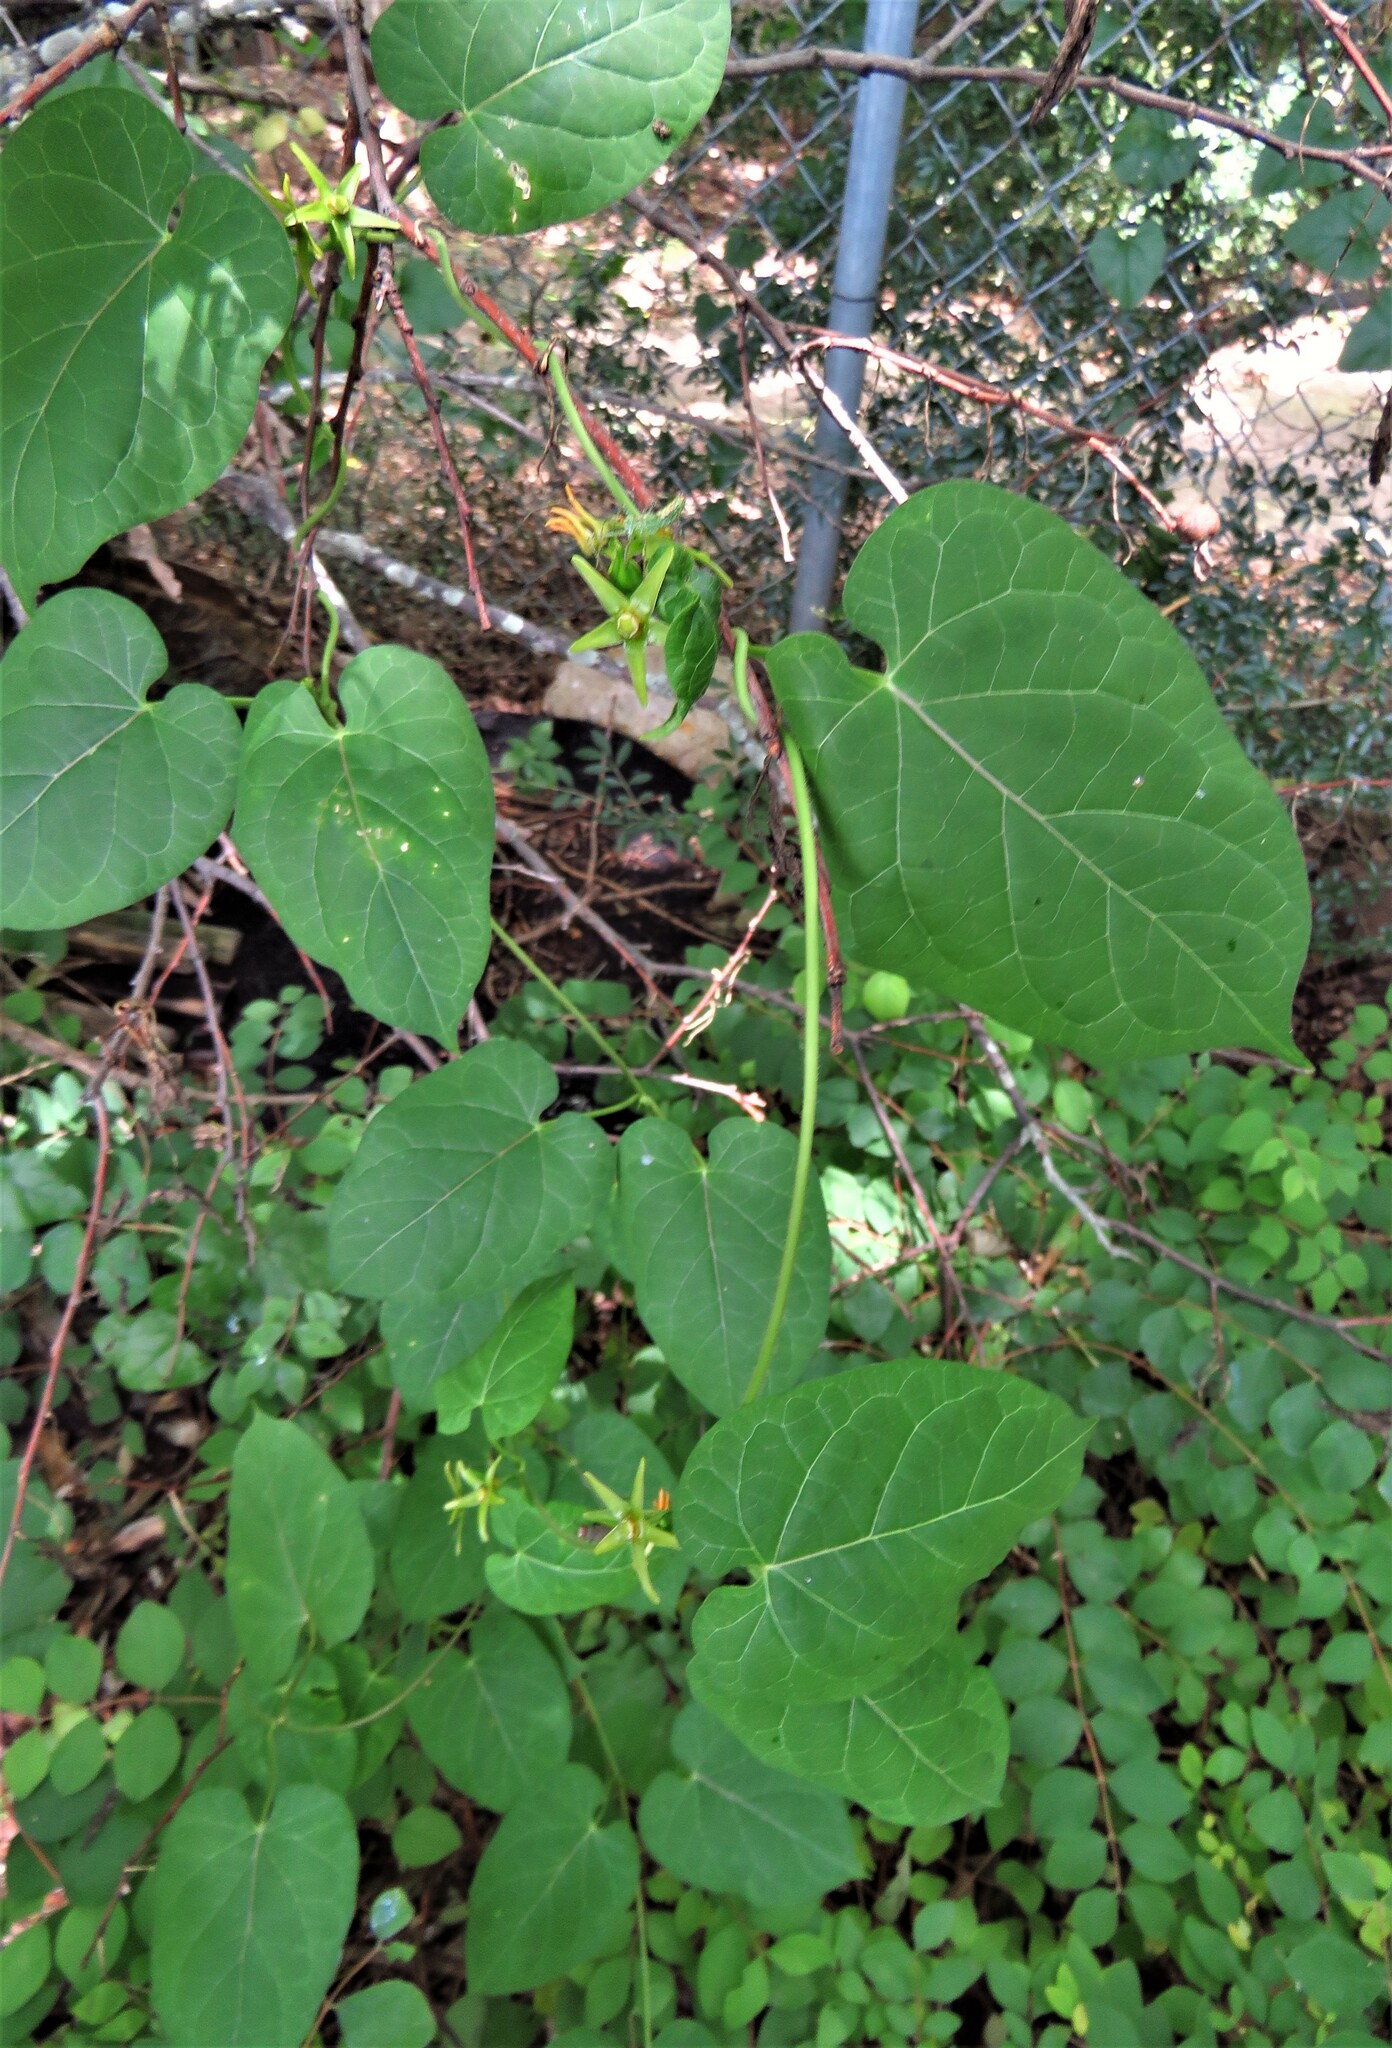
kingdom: Plantae
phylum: Tracheophyta
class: Magnoliopsida
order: Gentianales
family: Apocynaceae
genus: Gonolobus
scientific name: Gonolobus suberosus
